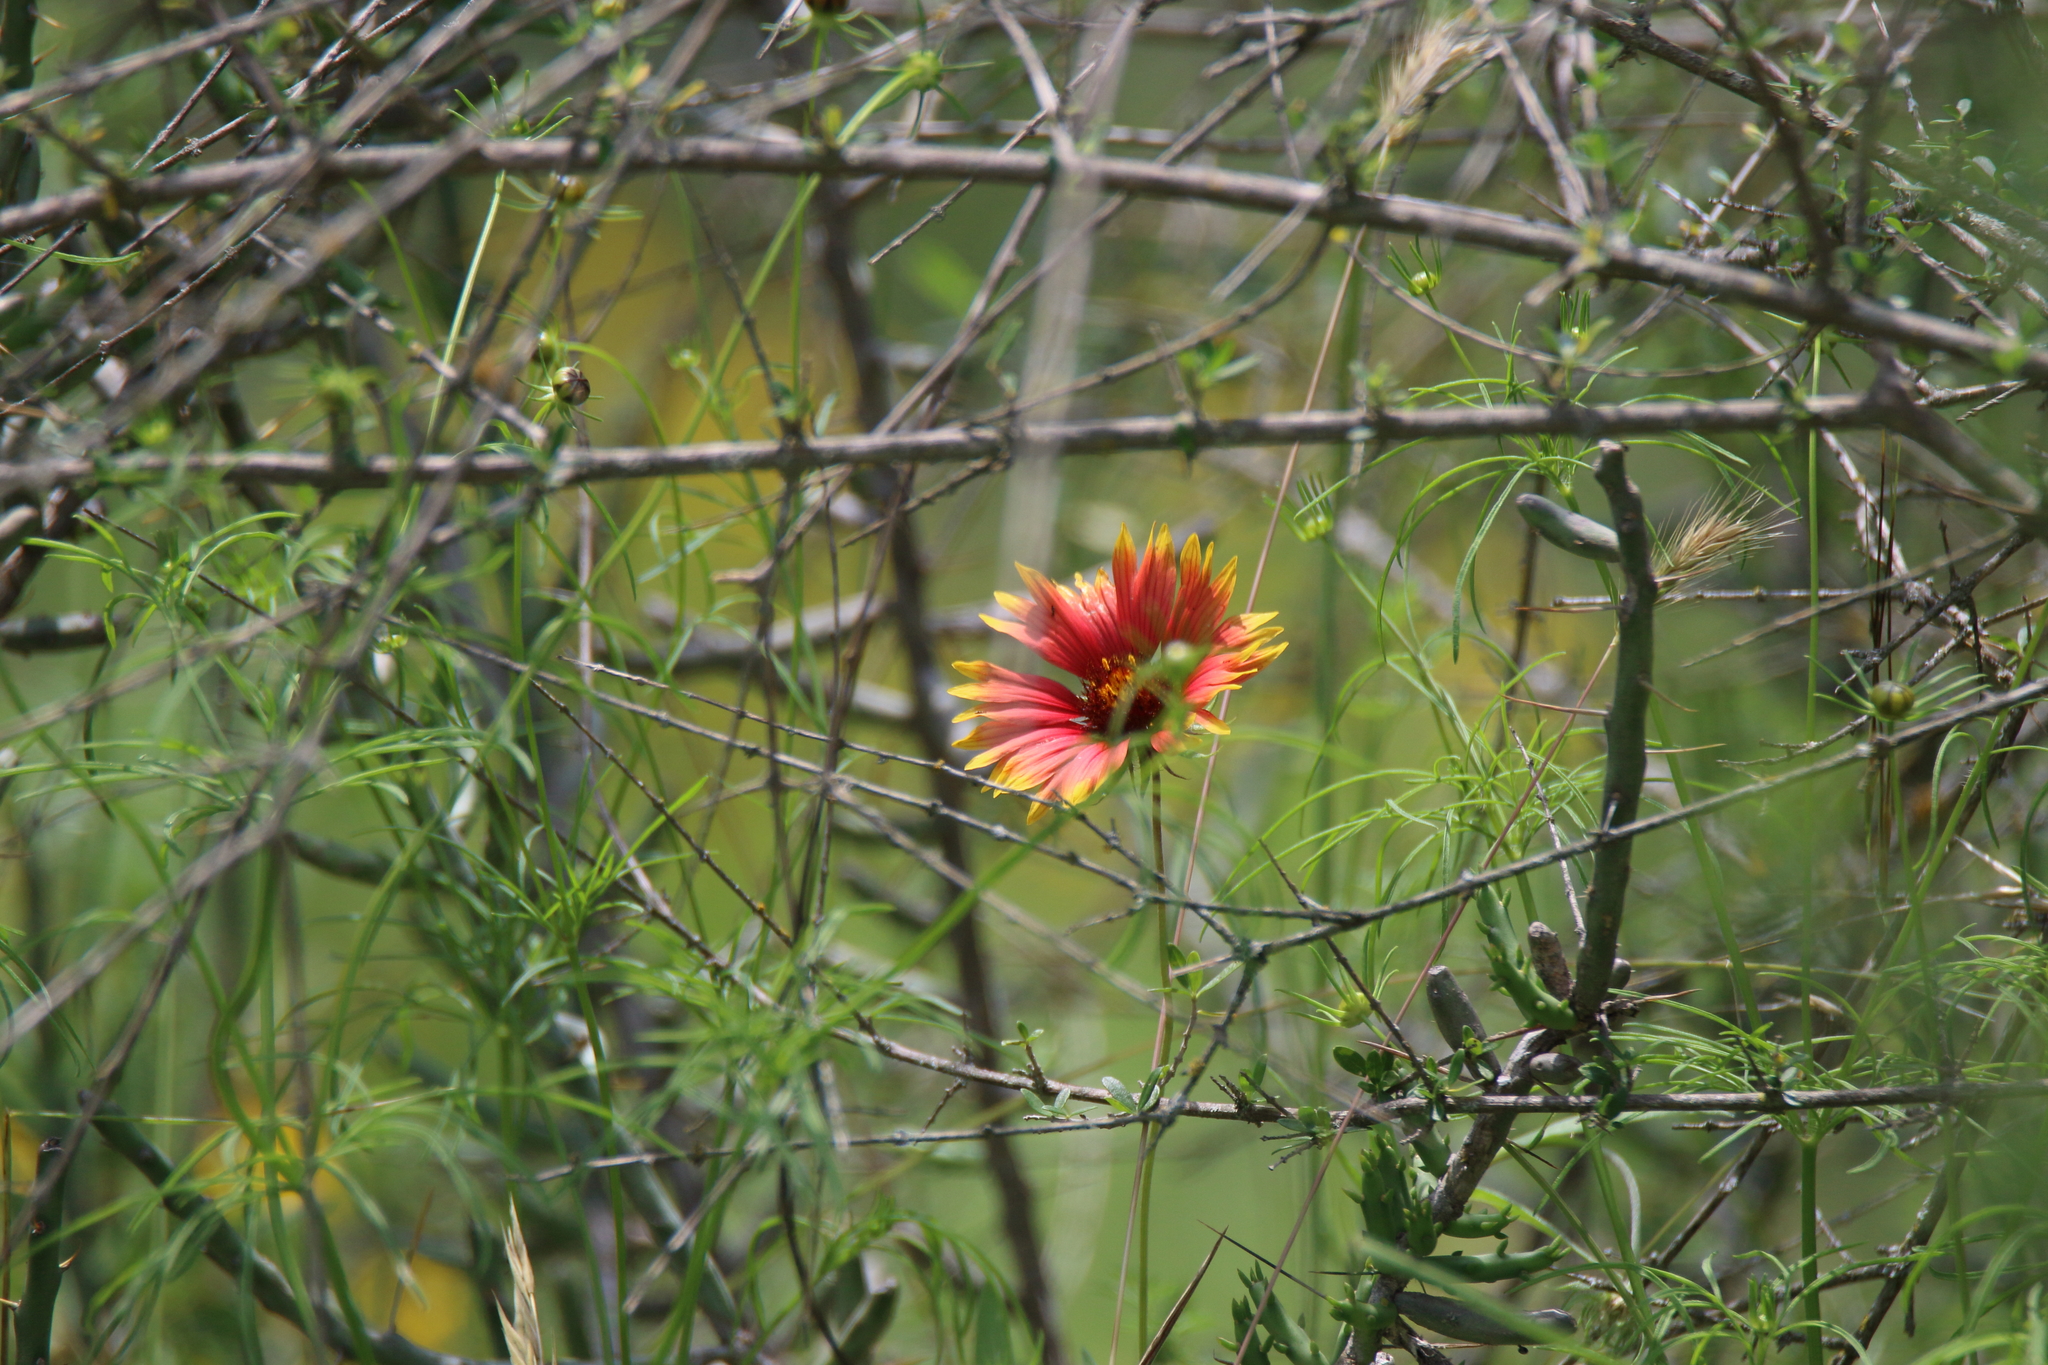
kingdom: Plantae
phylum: Tracheophyta
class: Magnoliopsida
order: Asterales
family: Asteraceae
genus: Gaillardia
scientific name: Gaillardia pulchella
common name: Firewheel
